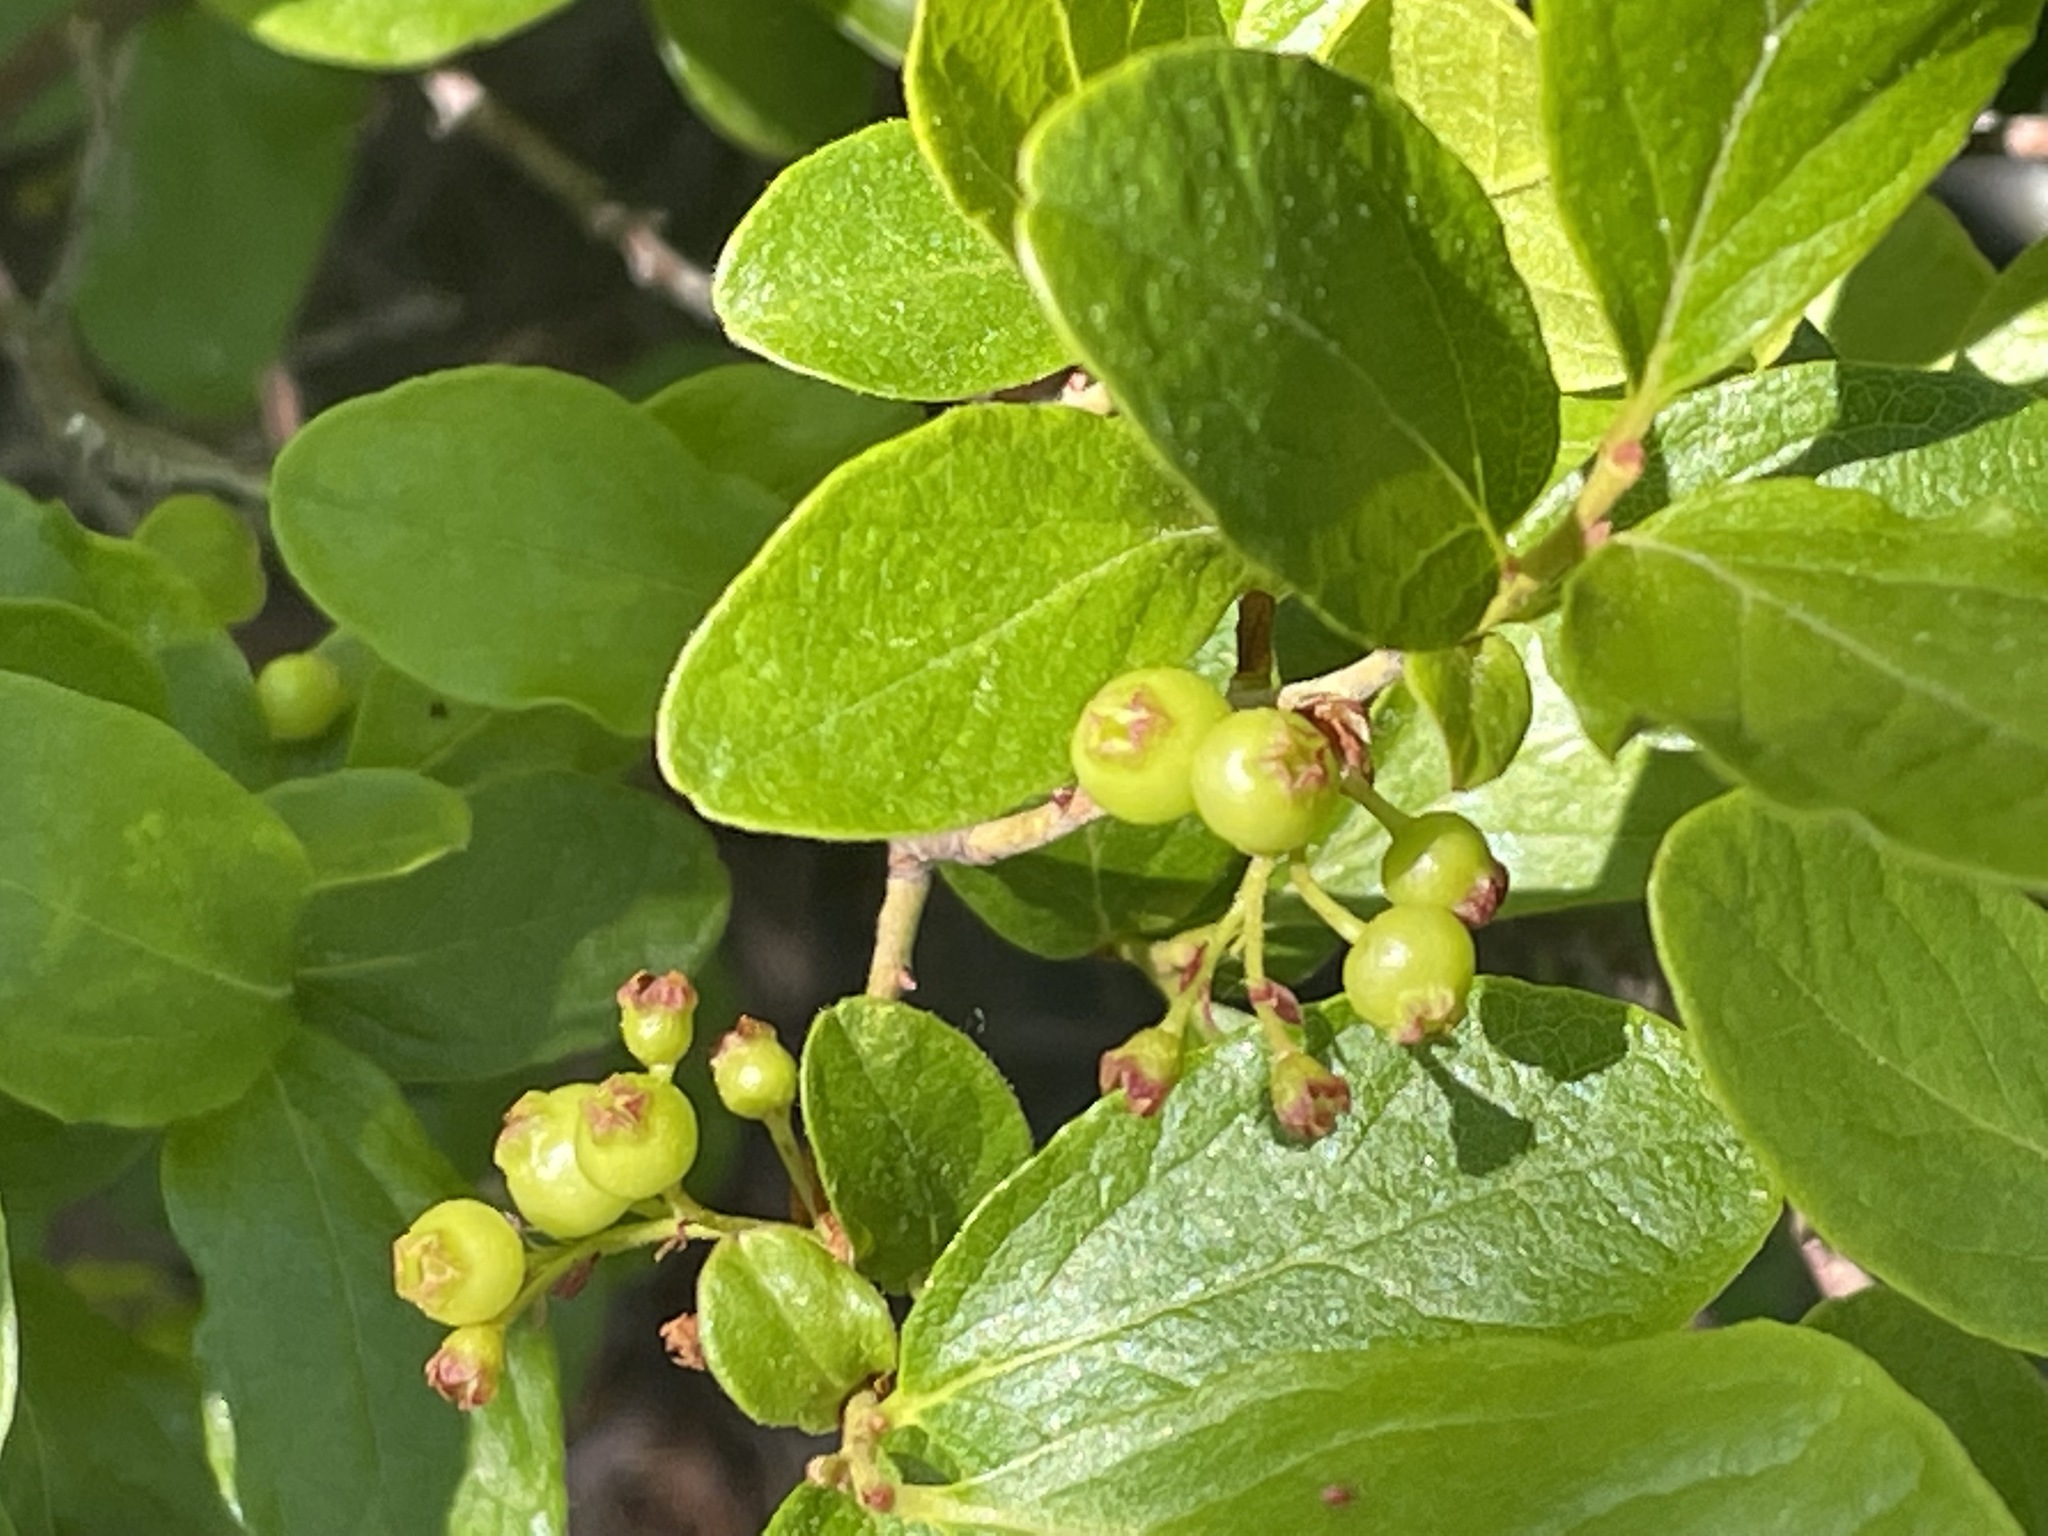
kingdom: Plantae
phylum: Tracheophyta
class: Magnoliopsida
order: Ericales
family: Ericaceae
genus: Gaylussacia
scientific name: Gaylussacia baccata
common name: Black huckleberry
